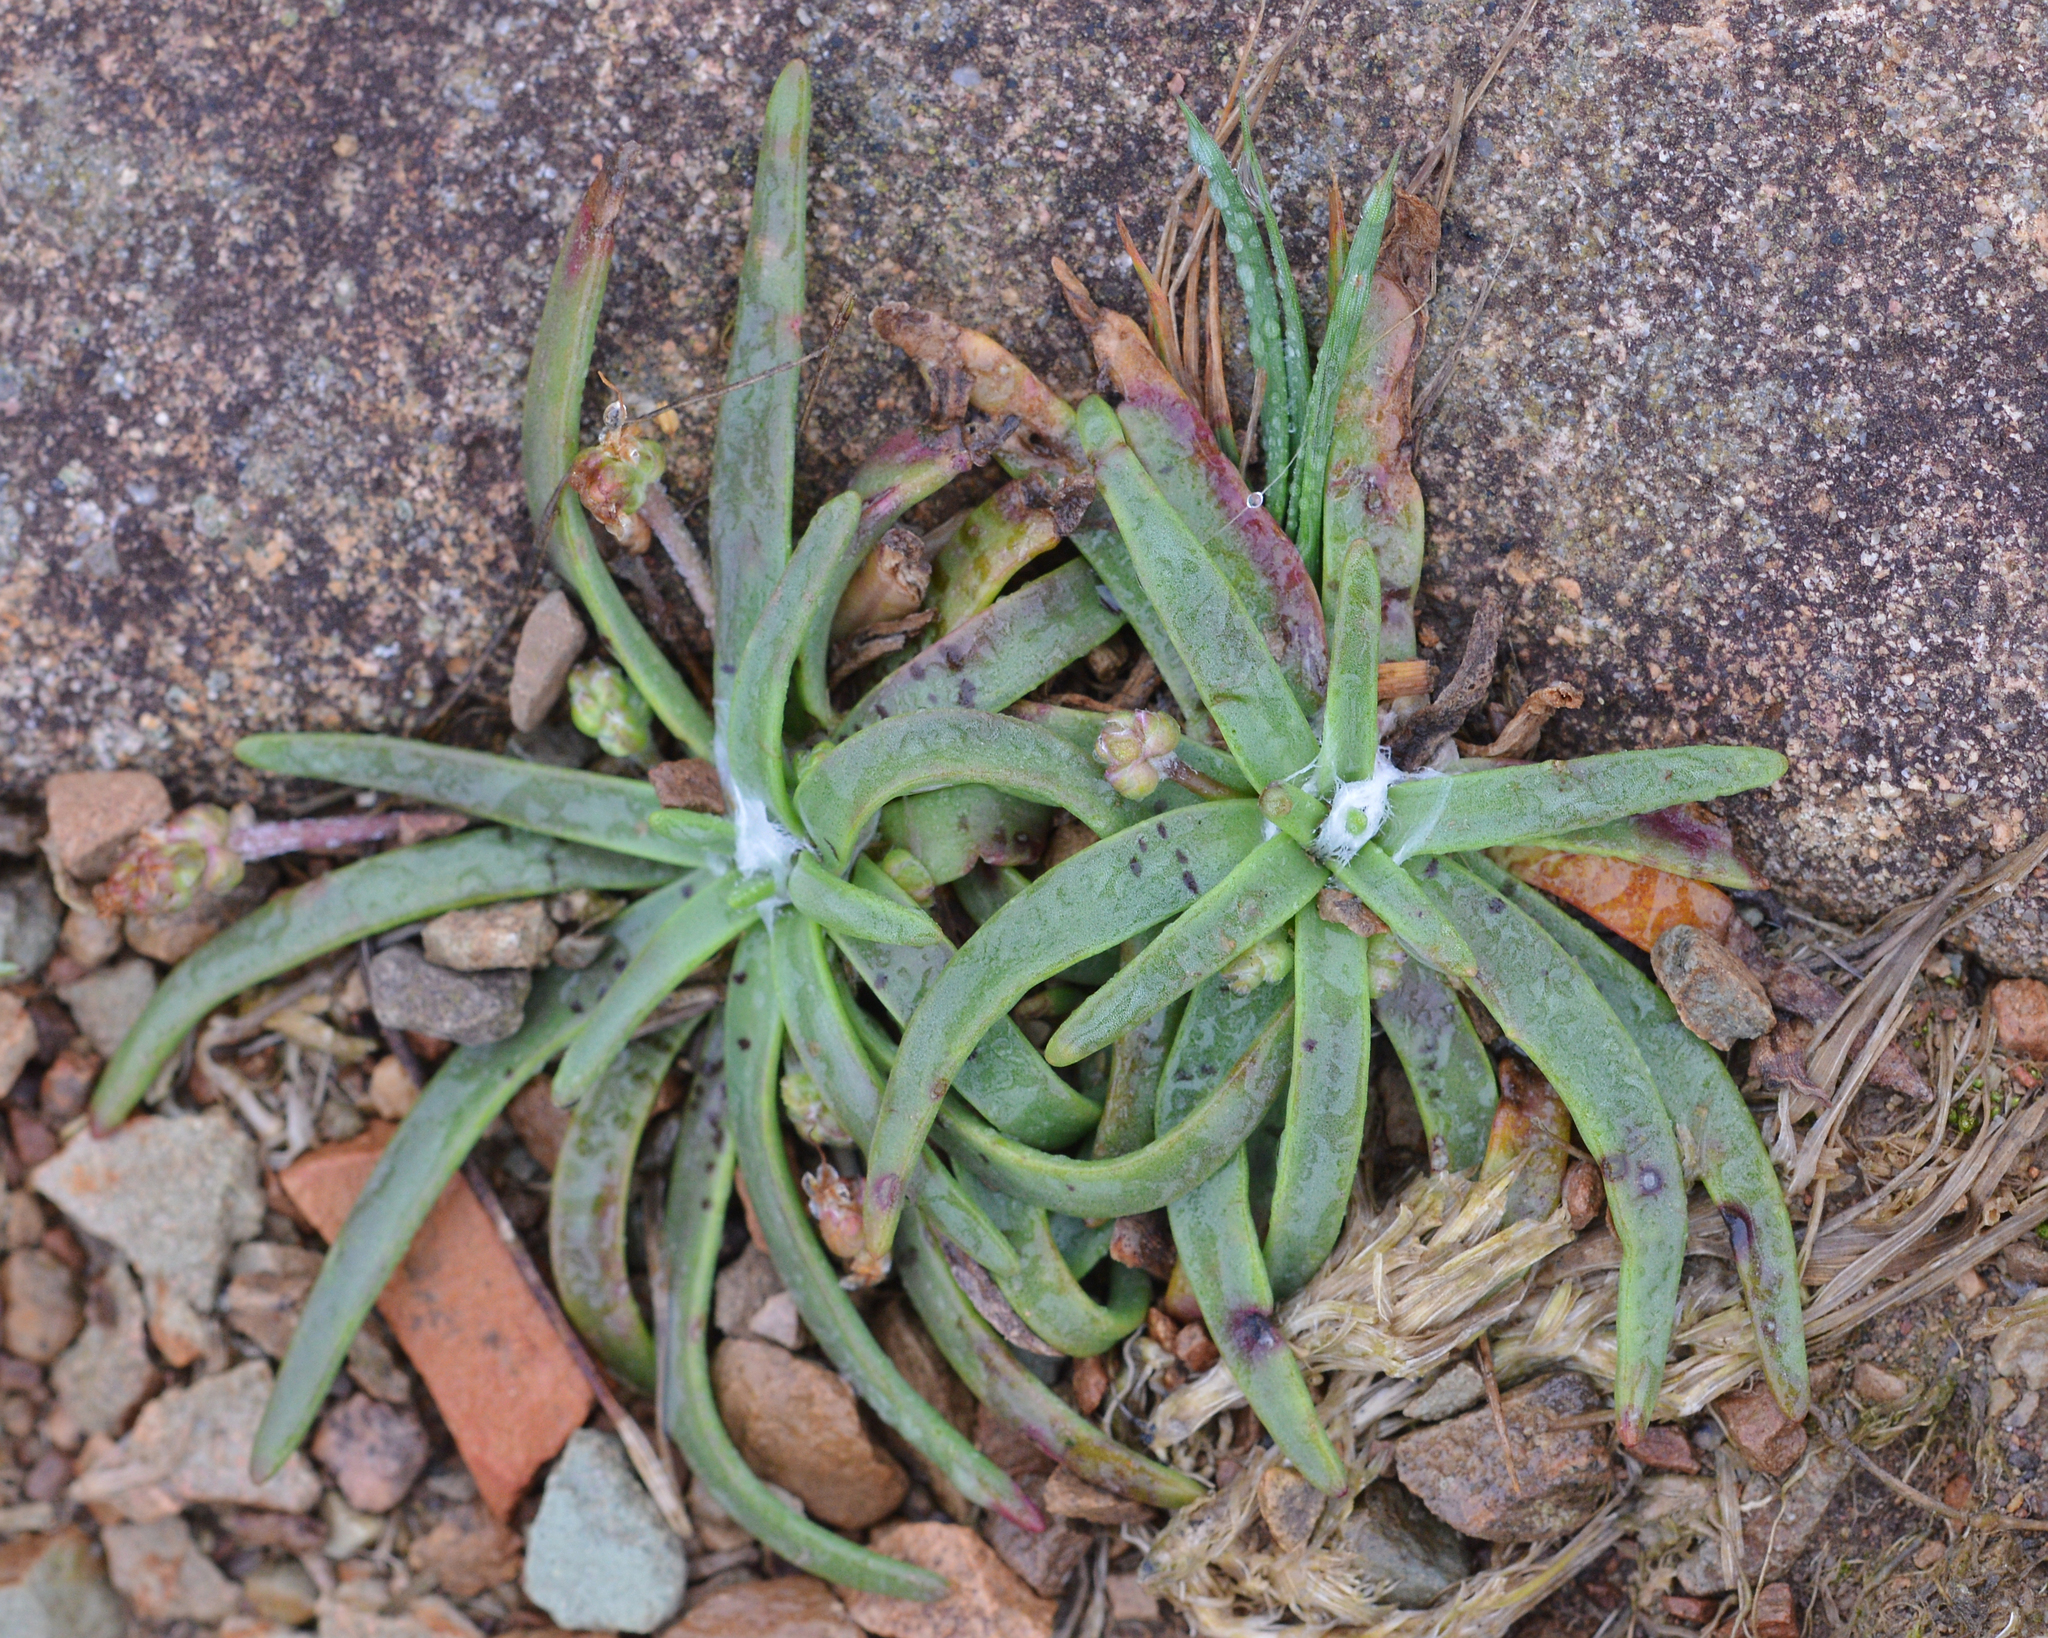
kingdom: Plantae
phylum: Tracheophyta
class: Magnoliopsida
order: Lamiales
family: Plantaginaceae
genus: Plantago
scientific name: Plantago maritima
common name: Sea plantain
